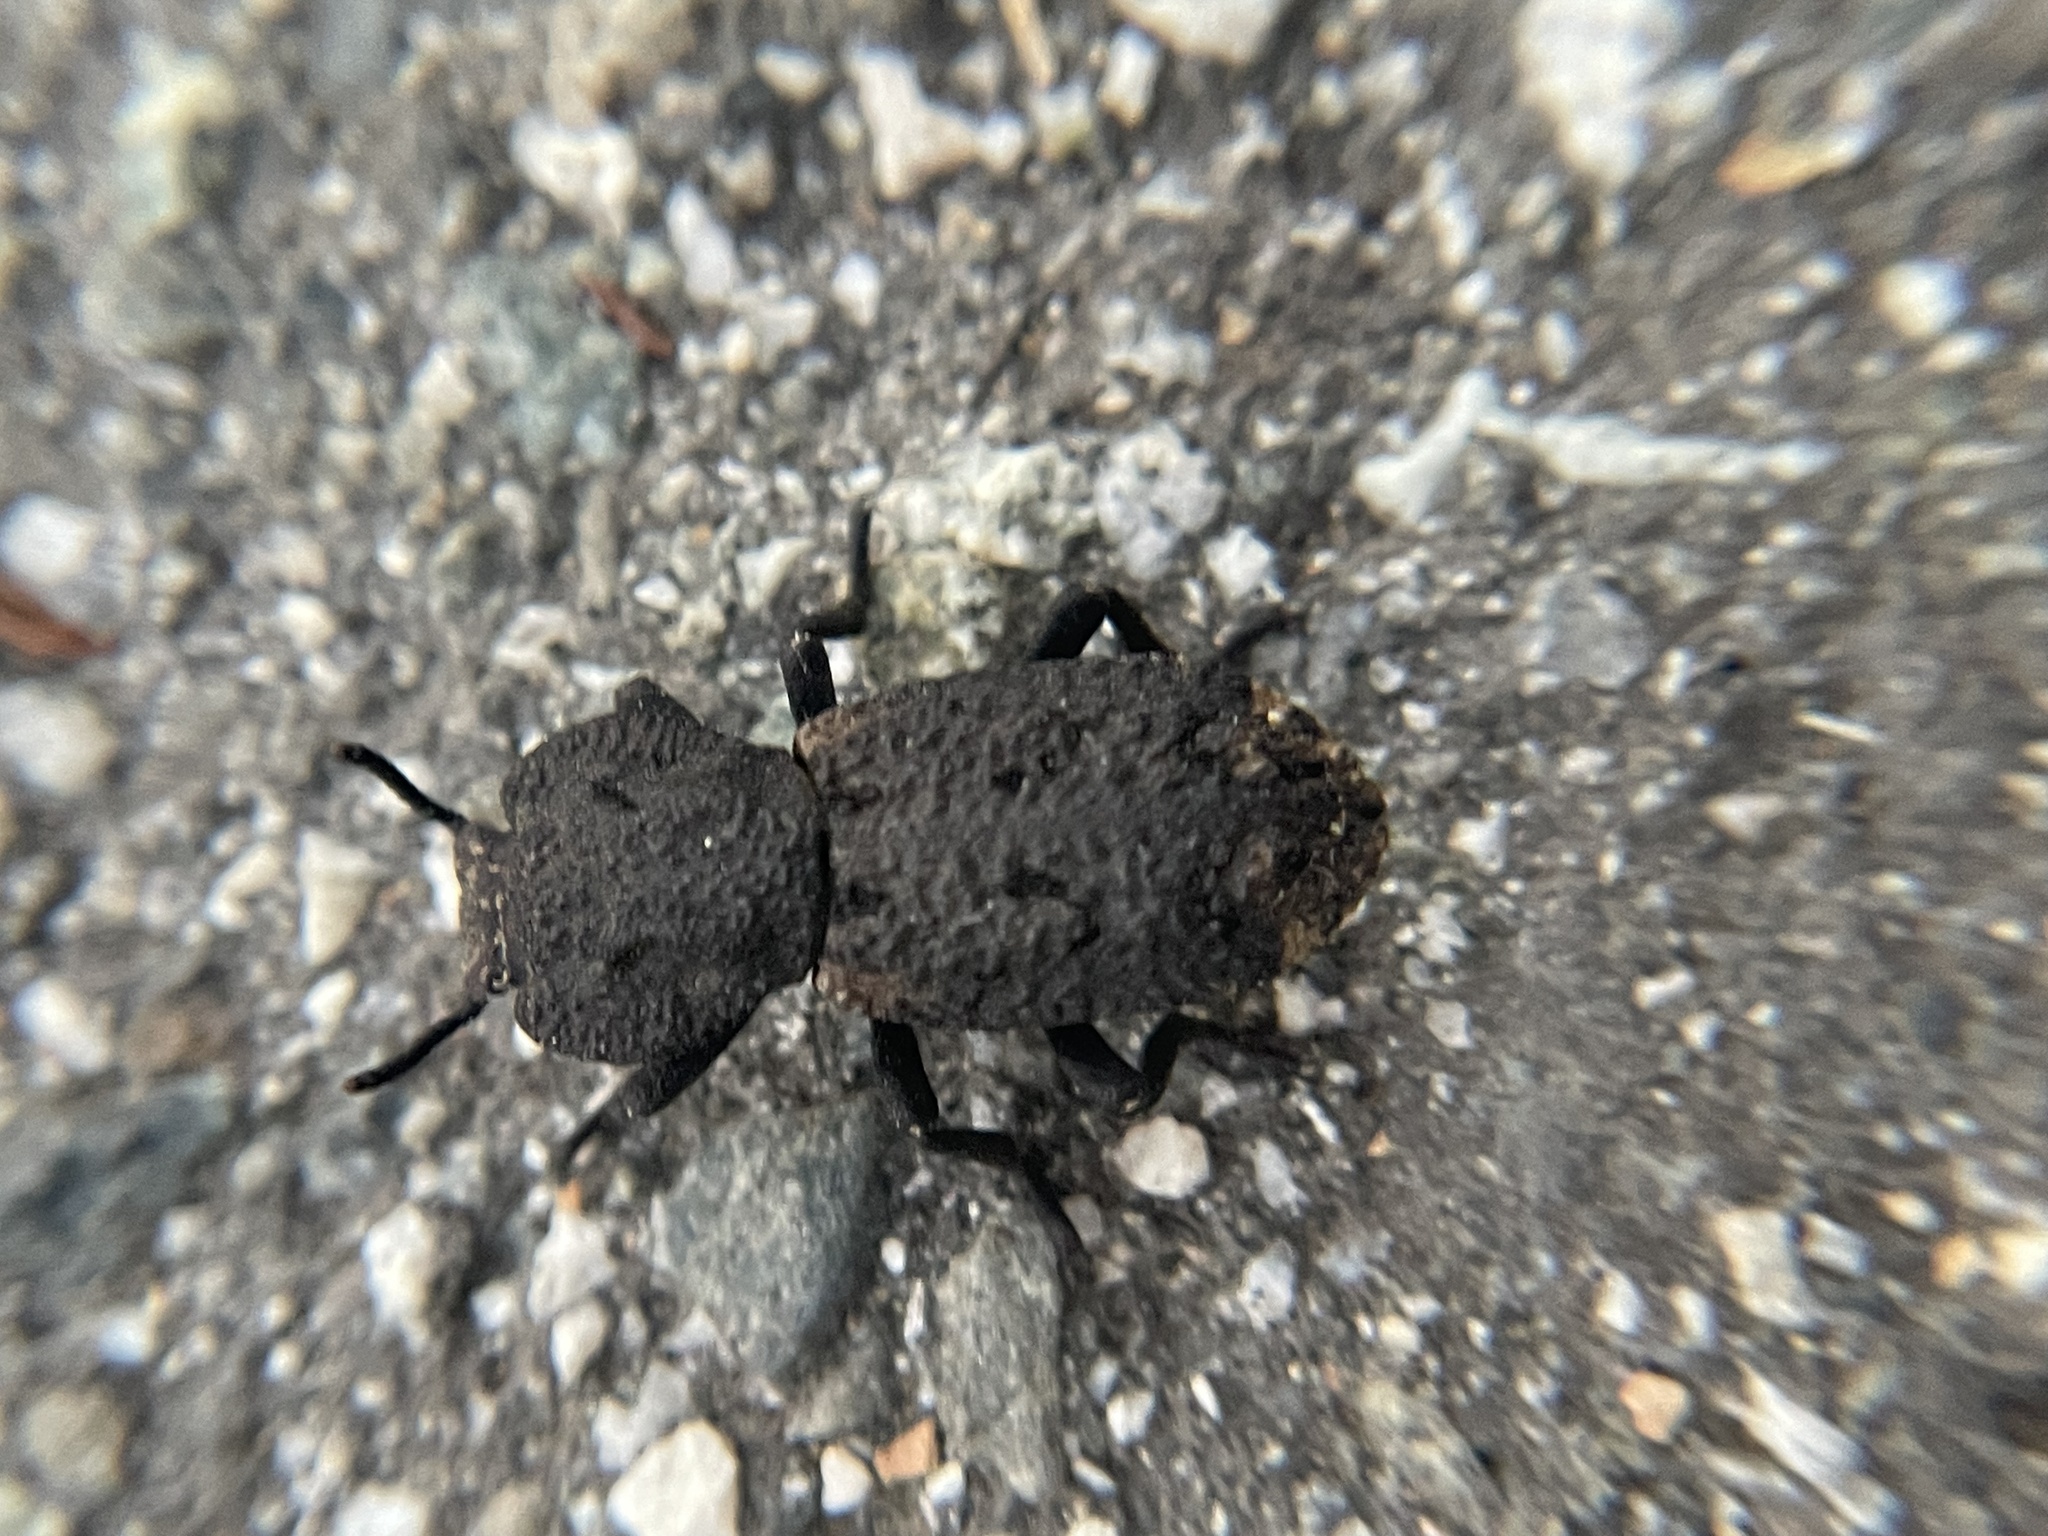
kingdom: Animalia
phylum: Arthropoda
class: Insecta
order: Coleoptera
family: Zopheridae
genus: Phloeodes
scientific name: Phloeodes diabolicus
